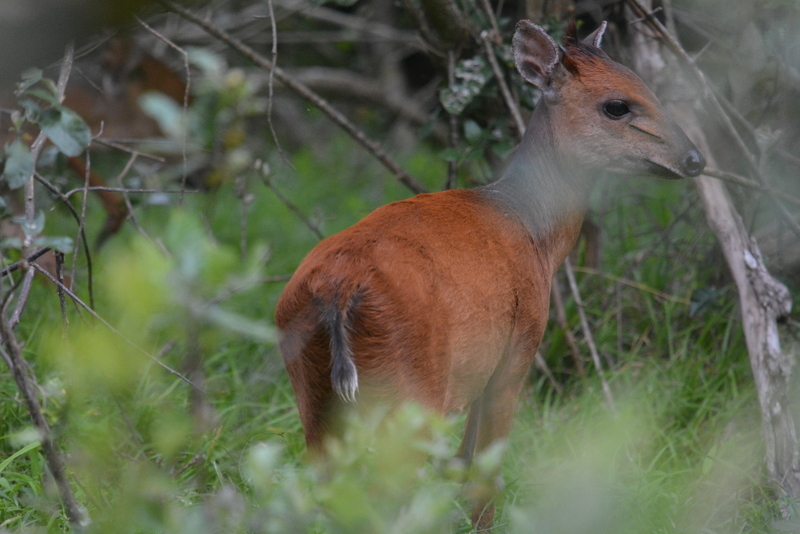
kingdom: Animalia
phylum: Chordata
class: Mammalia
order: Artiodactyla
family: Bovidae
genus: Cephalophus
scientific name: Cephalophus natalensis
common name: Red duiker
